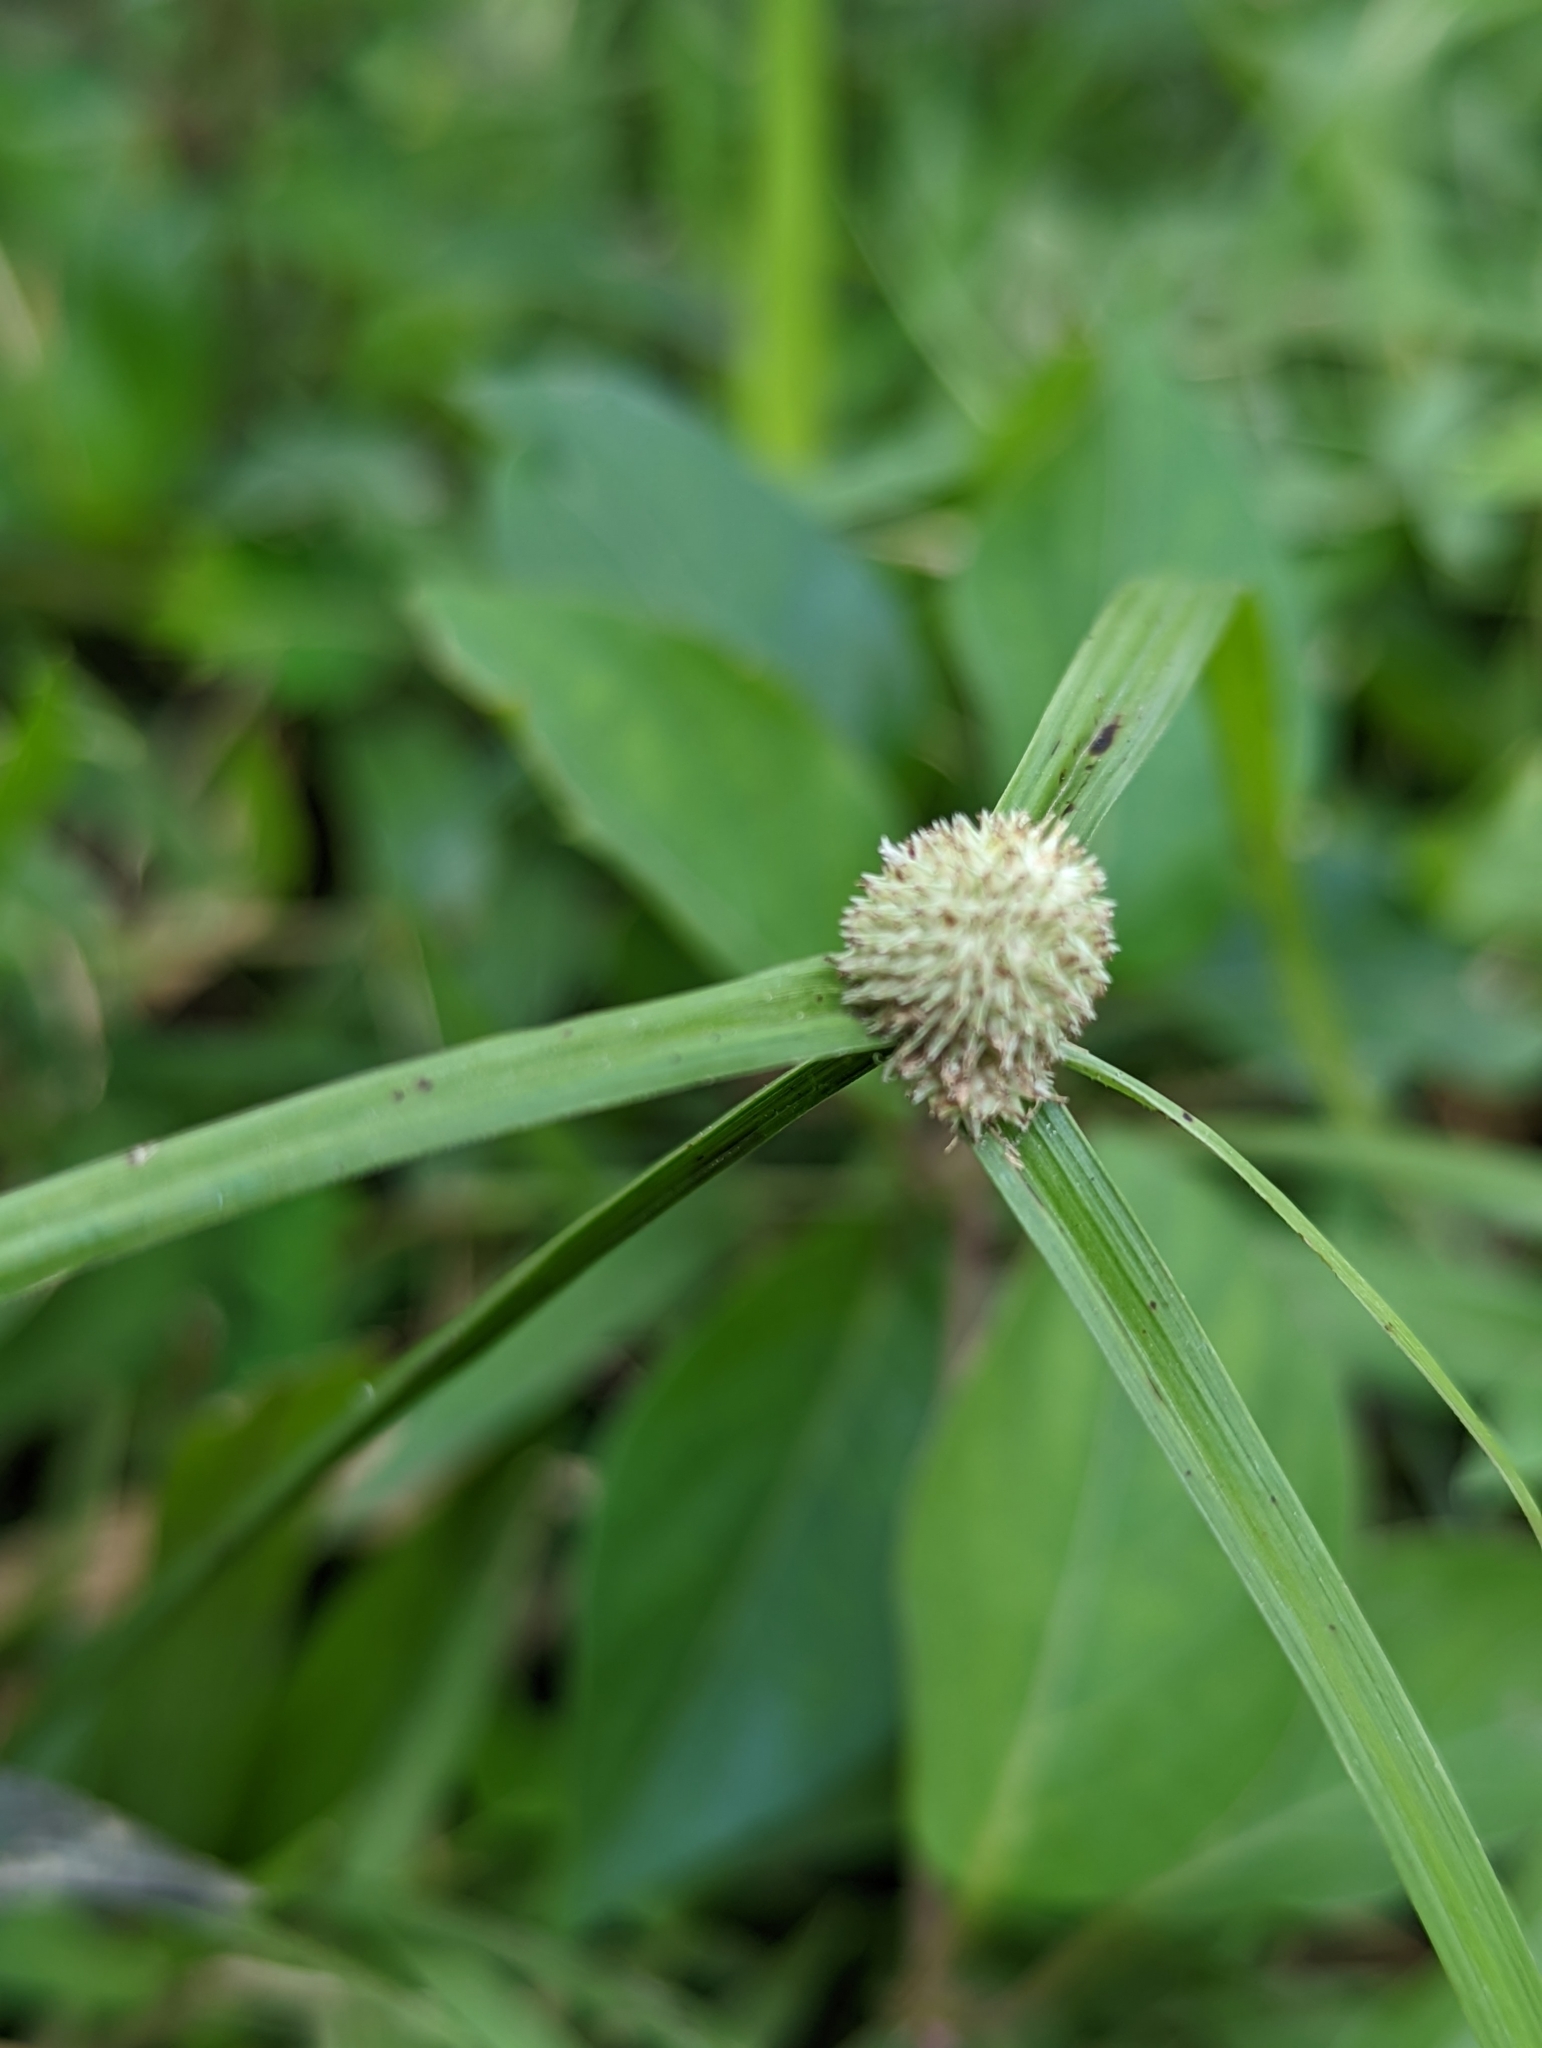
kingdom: Plantae
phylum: Tracheophyta
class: Liliopsida
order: Poales
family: Cyperaceae
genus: Cyperus
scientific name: Cyperus mindorensis
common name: Flatsedge
